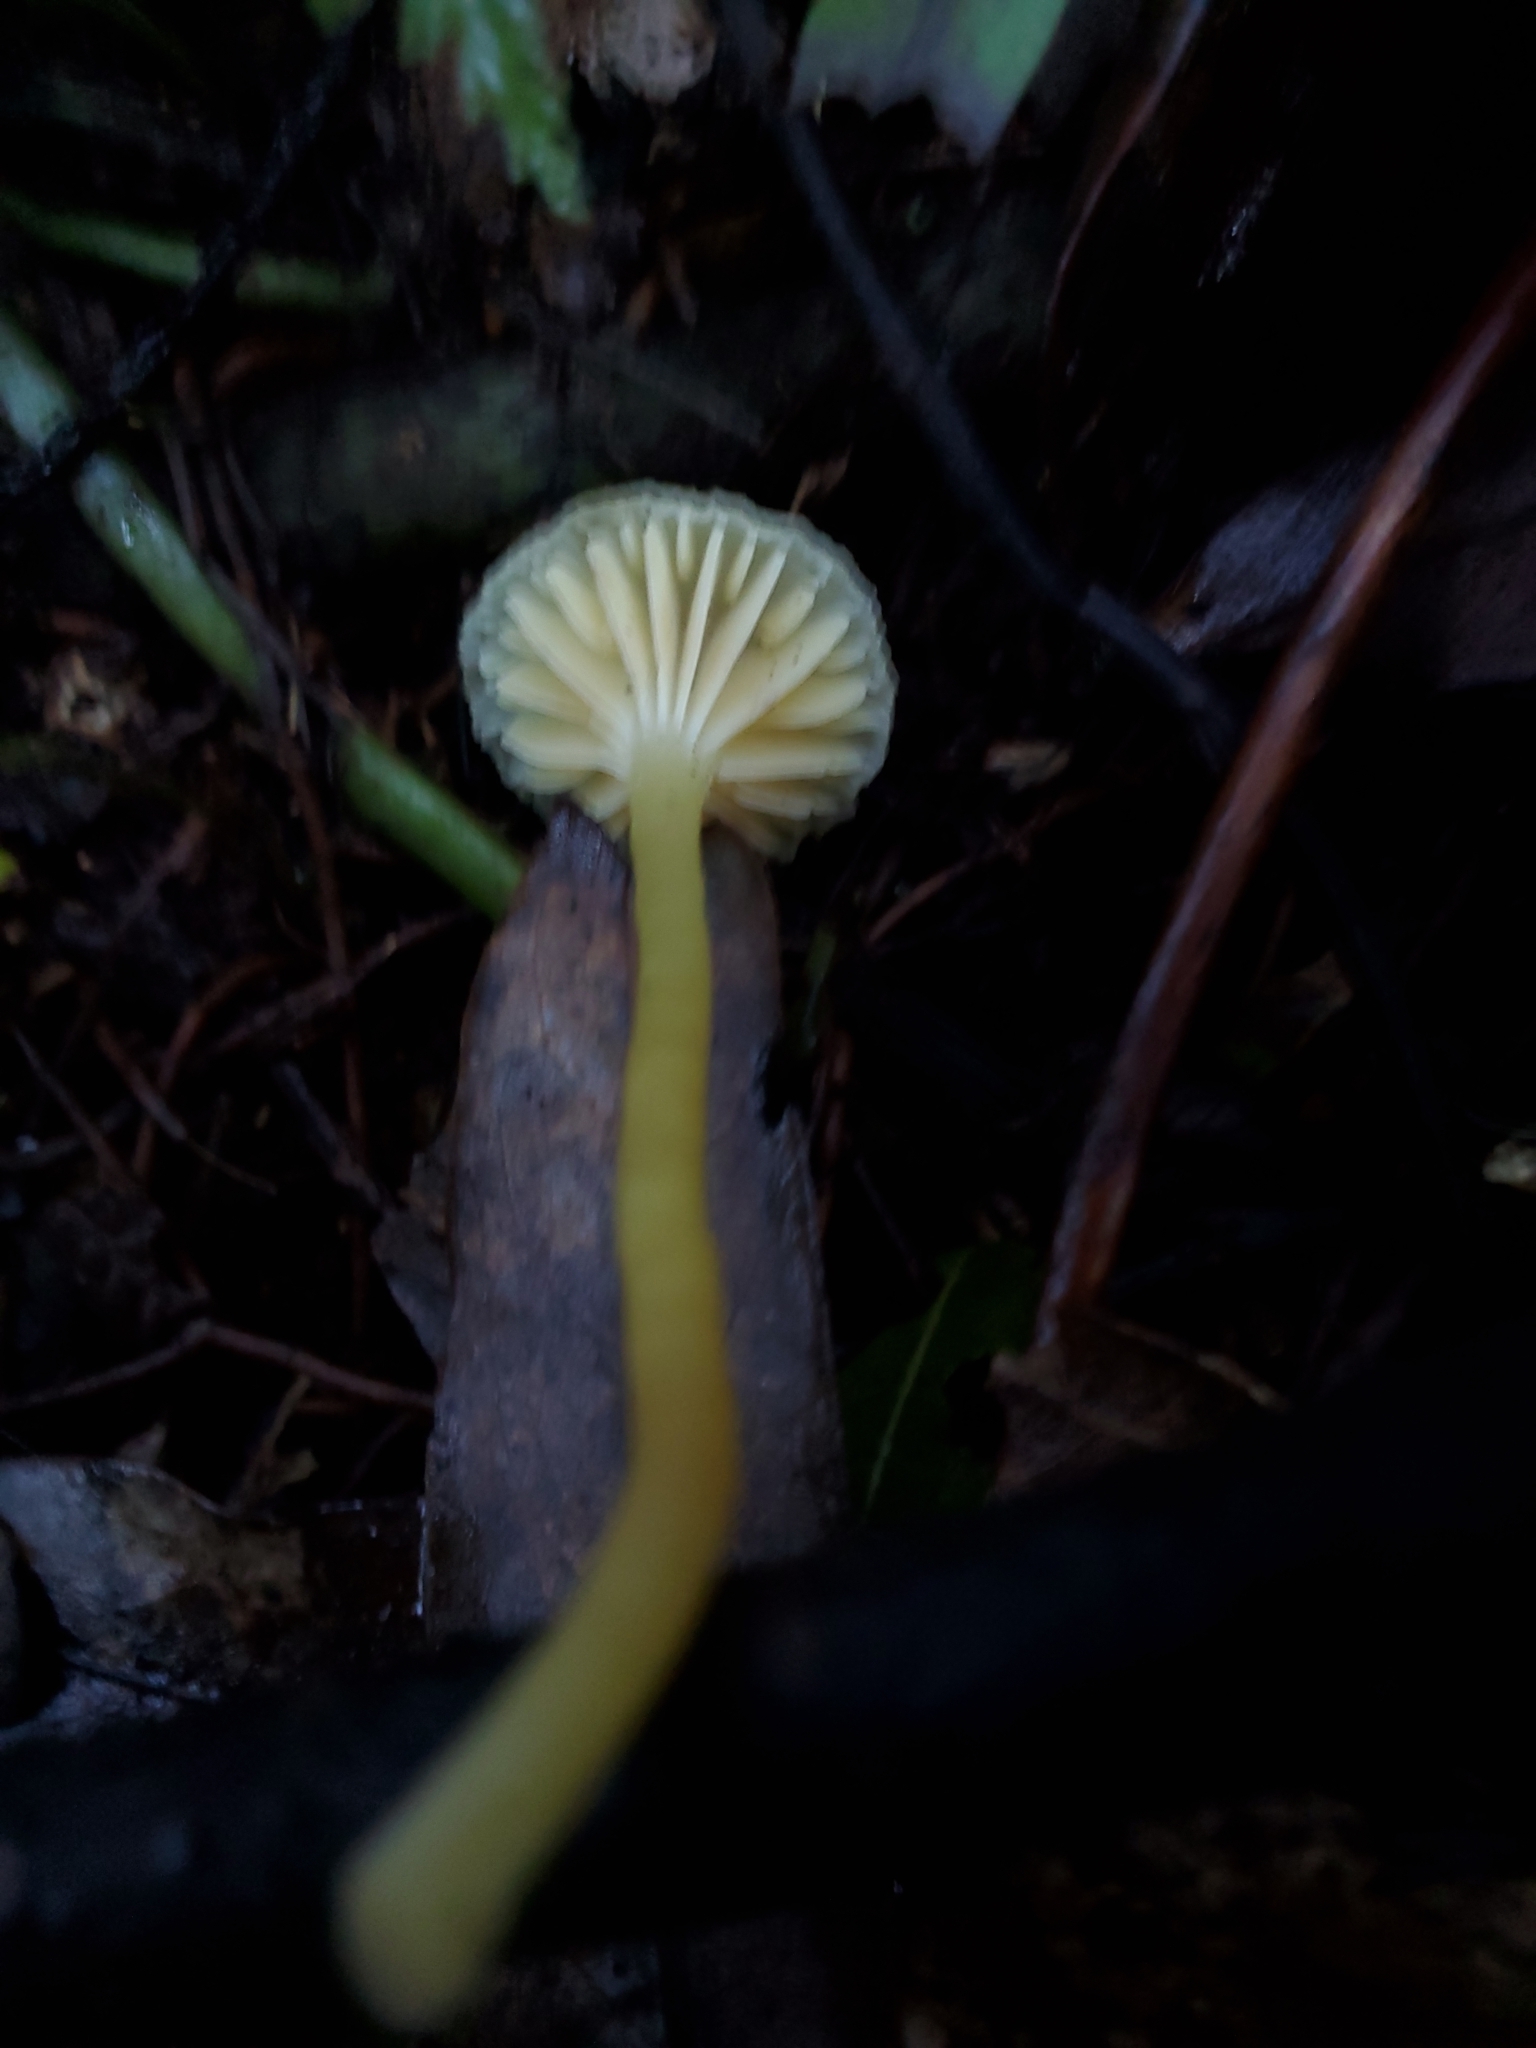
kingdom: Fungi
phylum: Basidiomycota
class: Agaricomycetes
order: Agaricales
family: Hygrophoraceae
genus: Gloioxanthomyces
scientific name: Gloioxanthomyces
